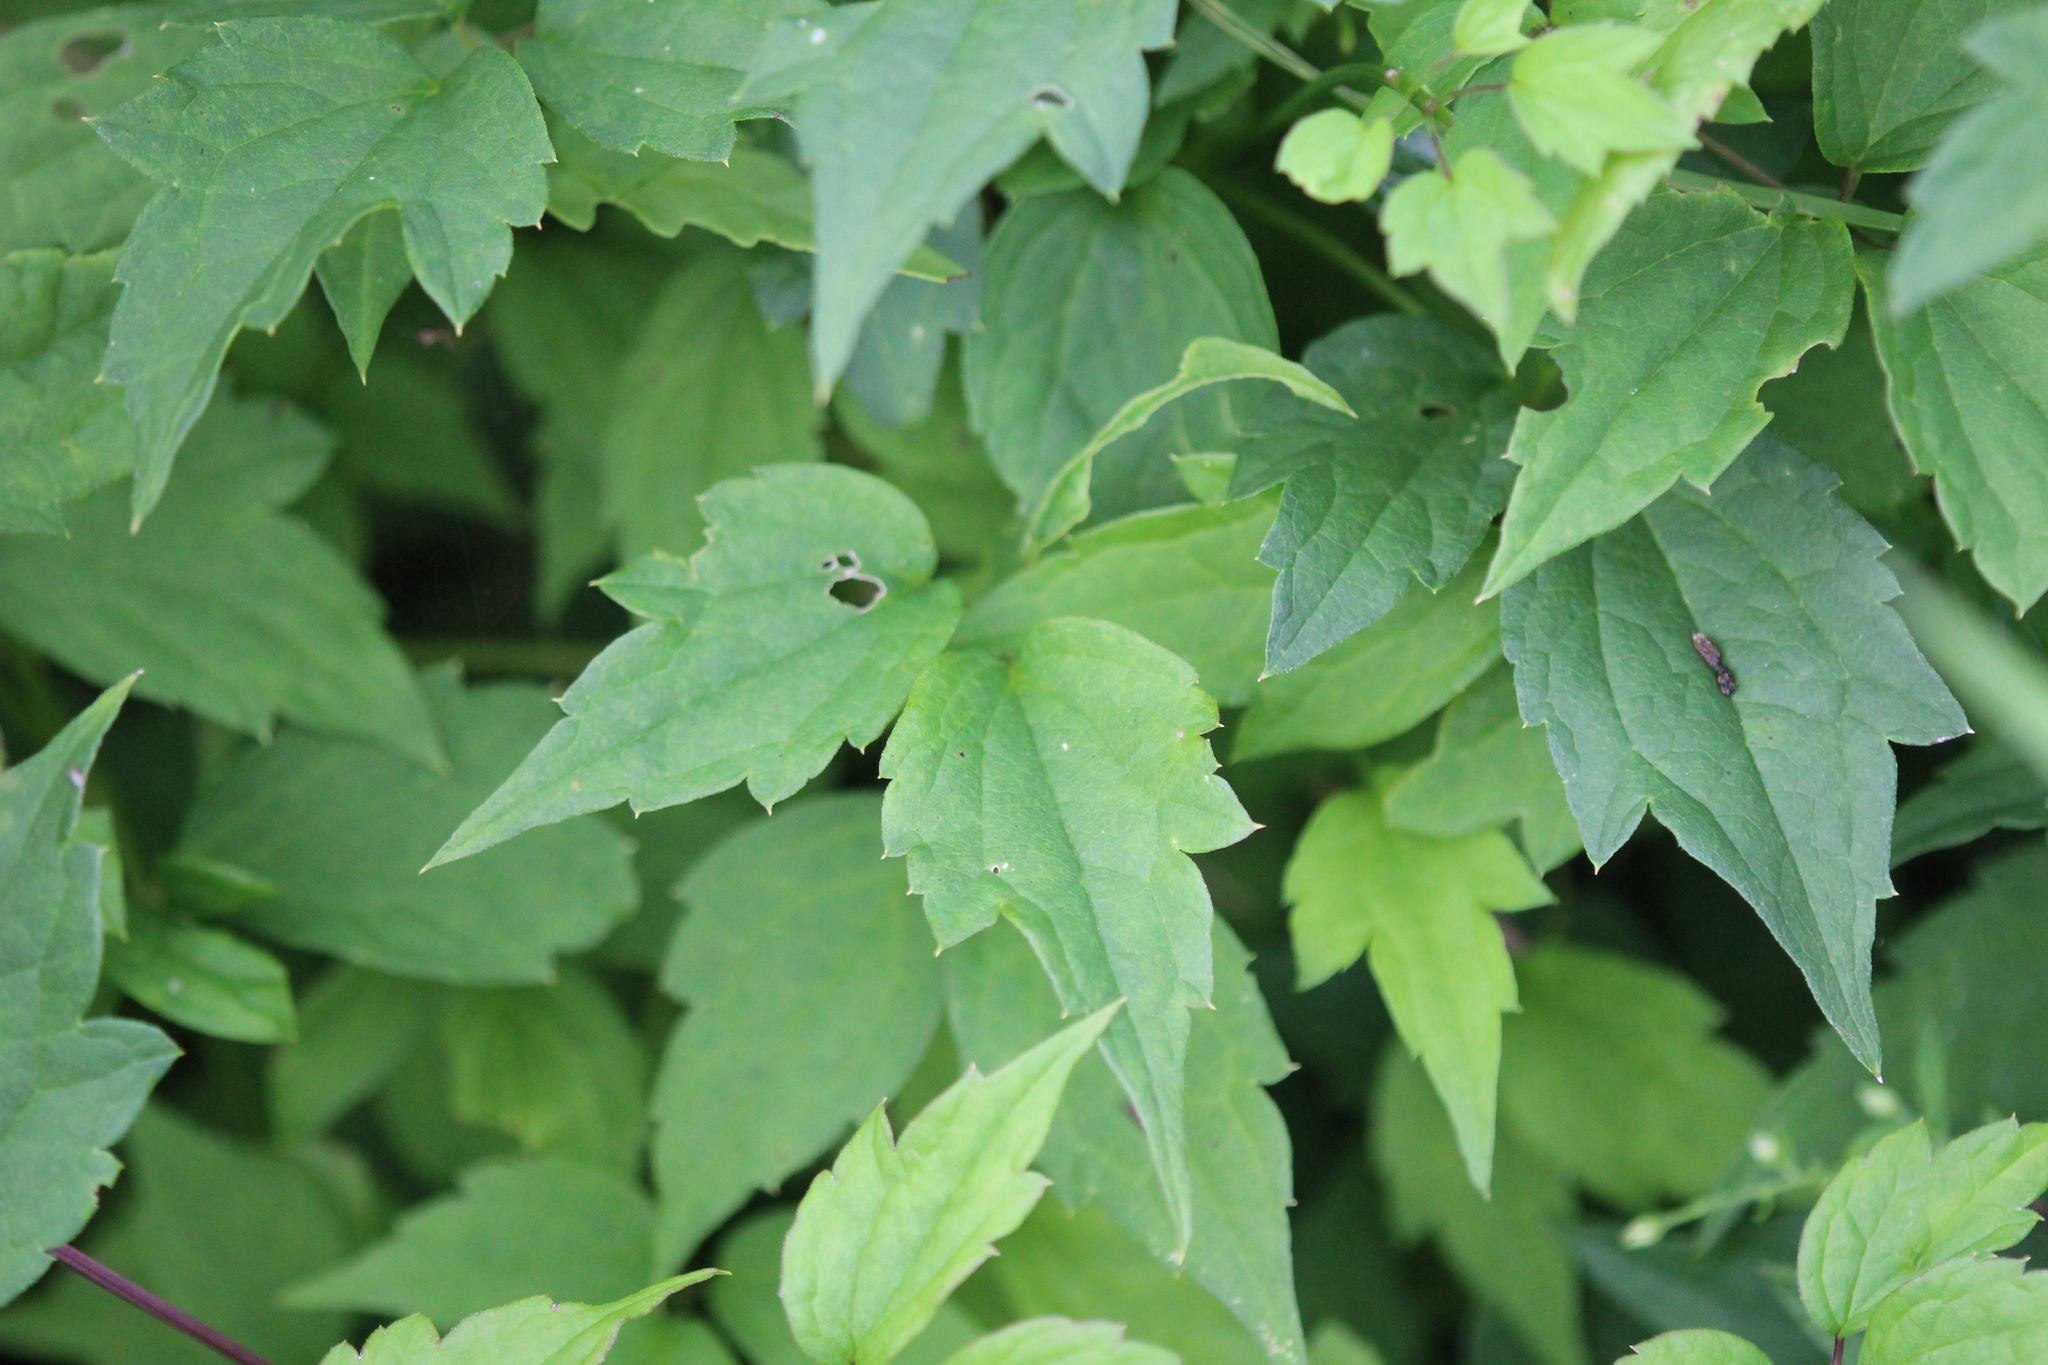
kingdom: Plantae
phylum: Tracheophyta
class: Magnoliopsida
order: Ranunculales
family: Ranunculaceae
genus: Clematis
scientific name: Clematis virginiana
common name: Virgin's-bower
